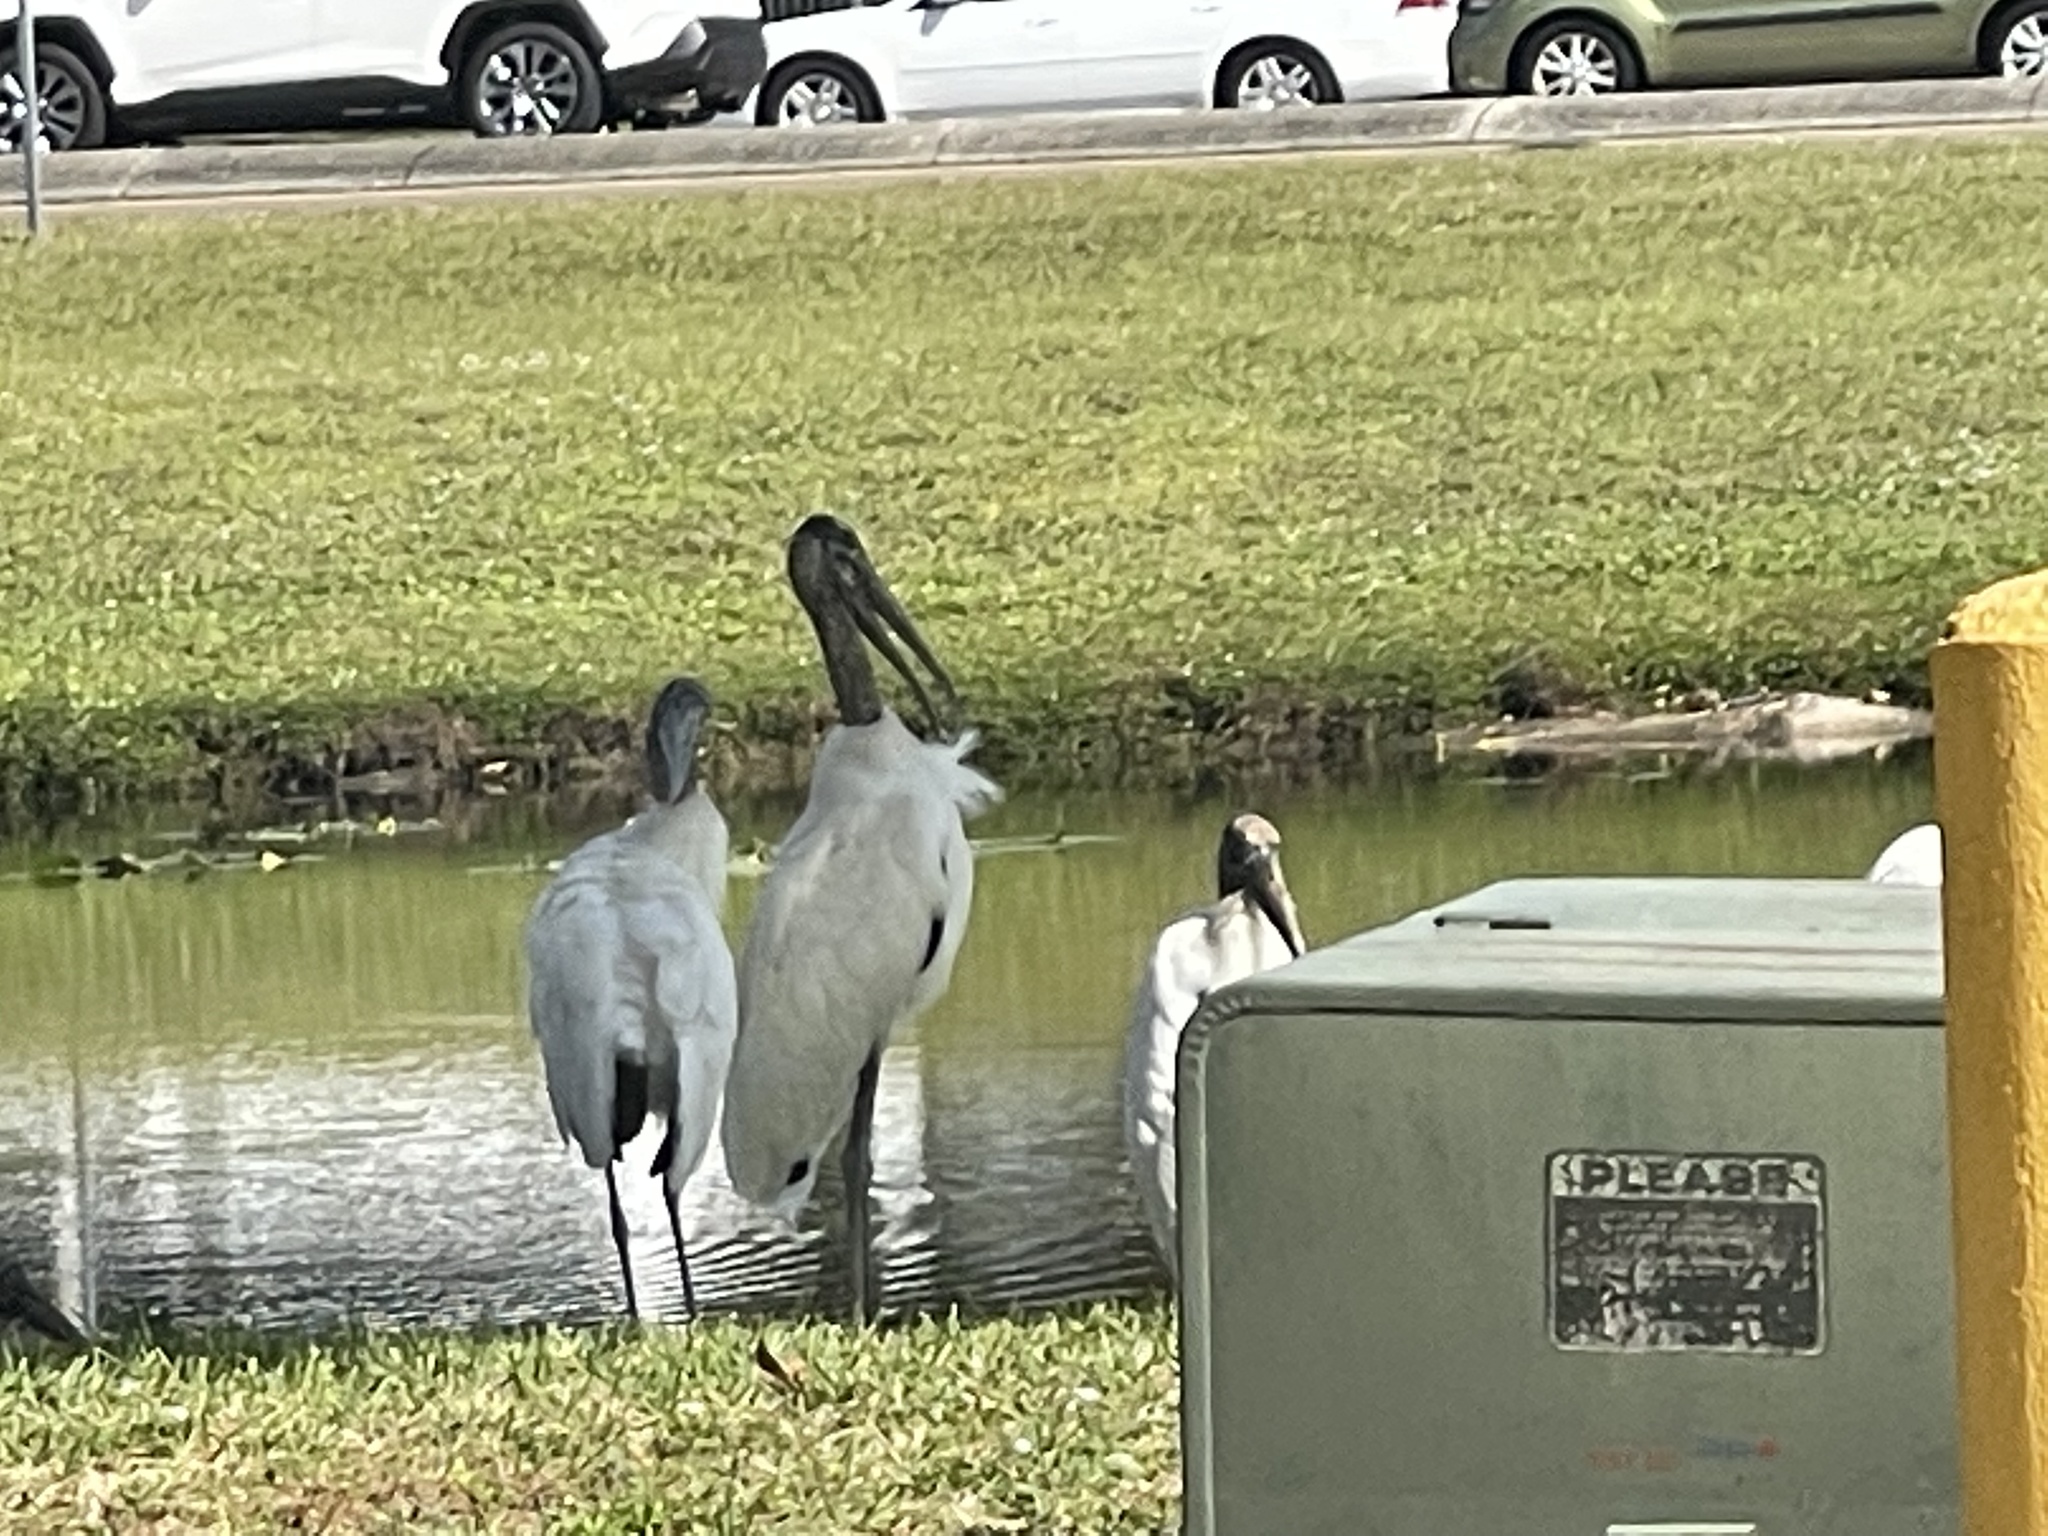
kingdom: Animalia
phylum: Chordata
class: Aves
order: Ciconiiformes
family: Ciconiidae
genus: Mycteria
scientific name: Mycteria americana
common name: Wood stork
